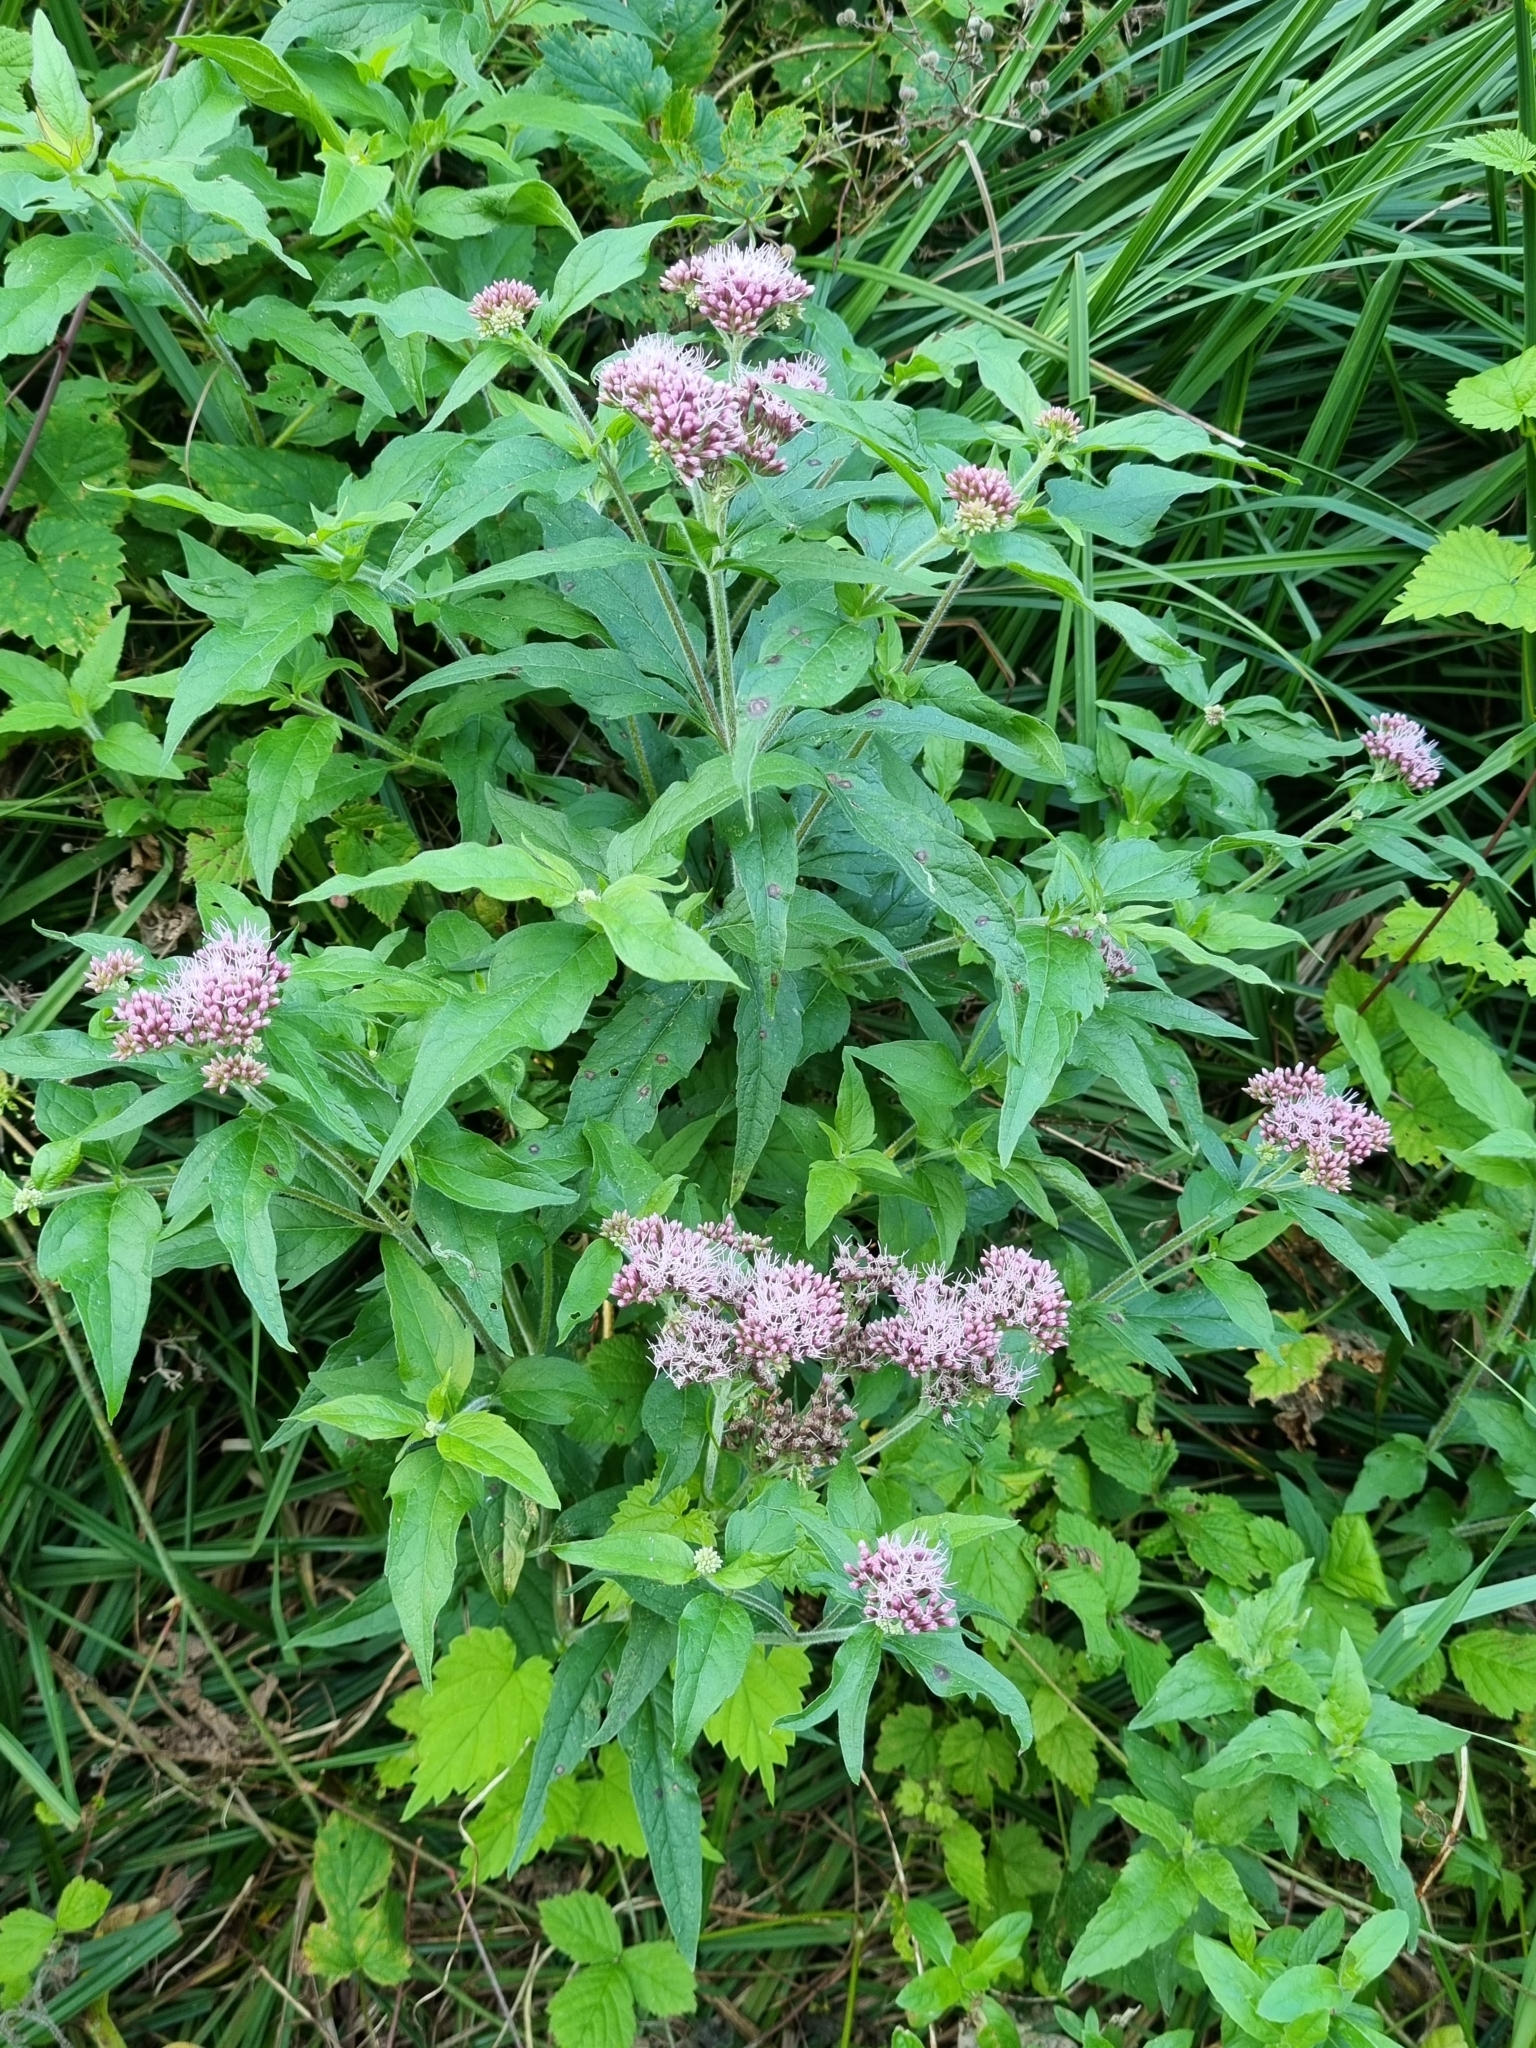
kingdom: Plantae
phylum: Tracheophyta
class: Magnoliopsida
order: Asterales
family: Asteraceae
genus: Eupatorium
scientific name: Eupatorium cannabinum
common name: Hemp-agrimony
